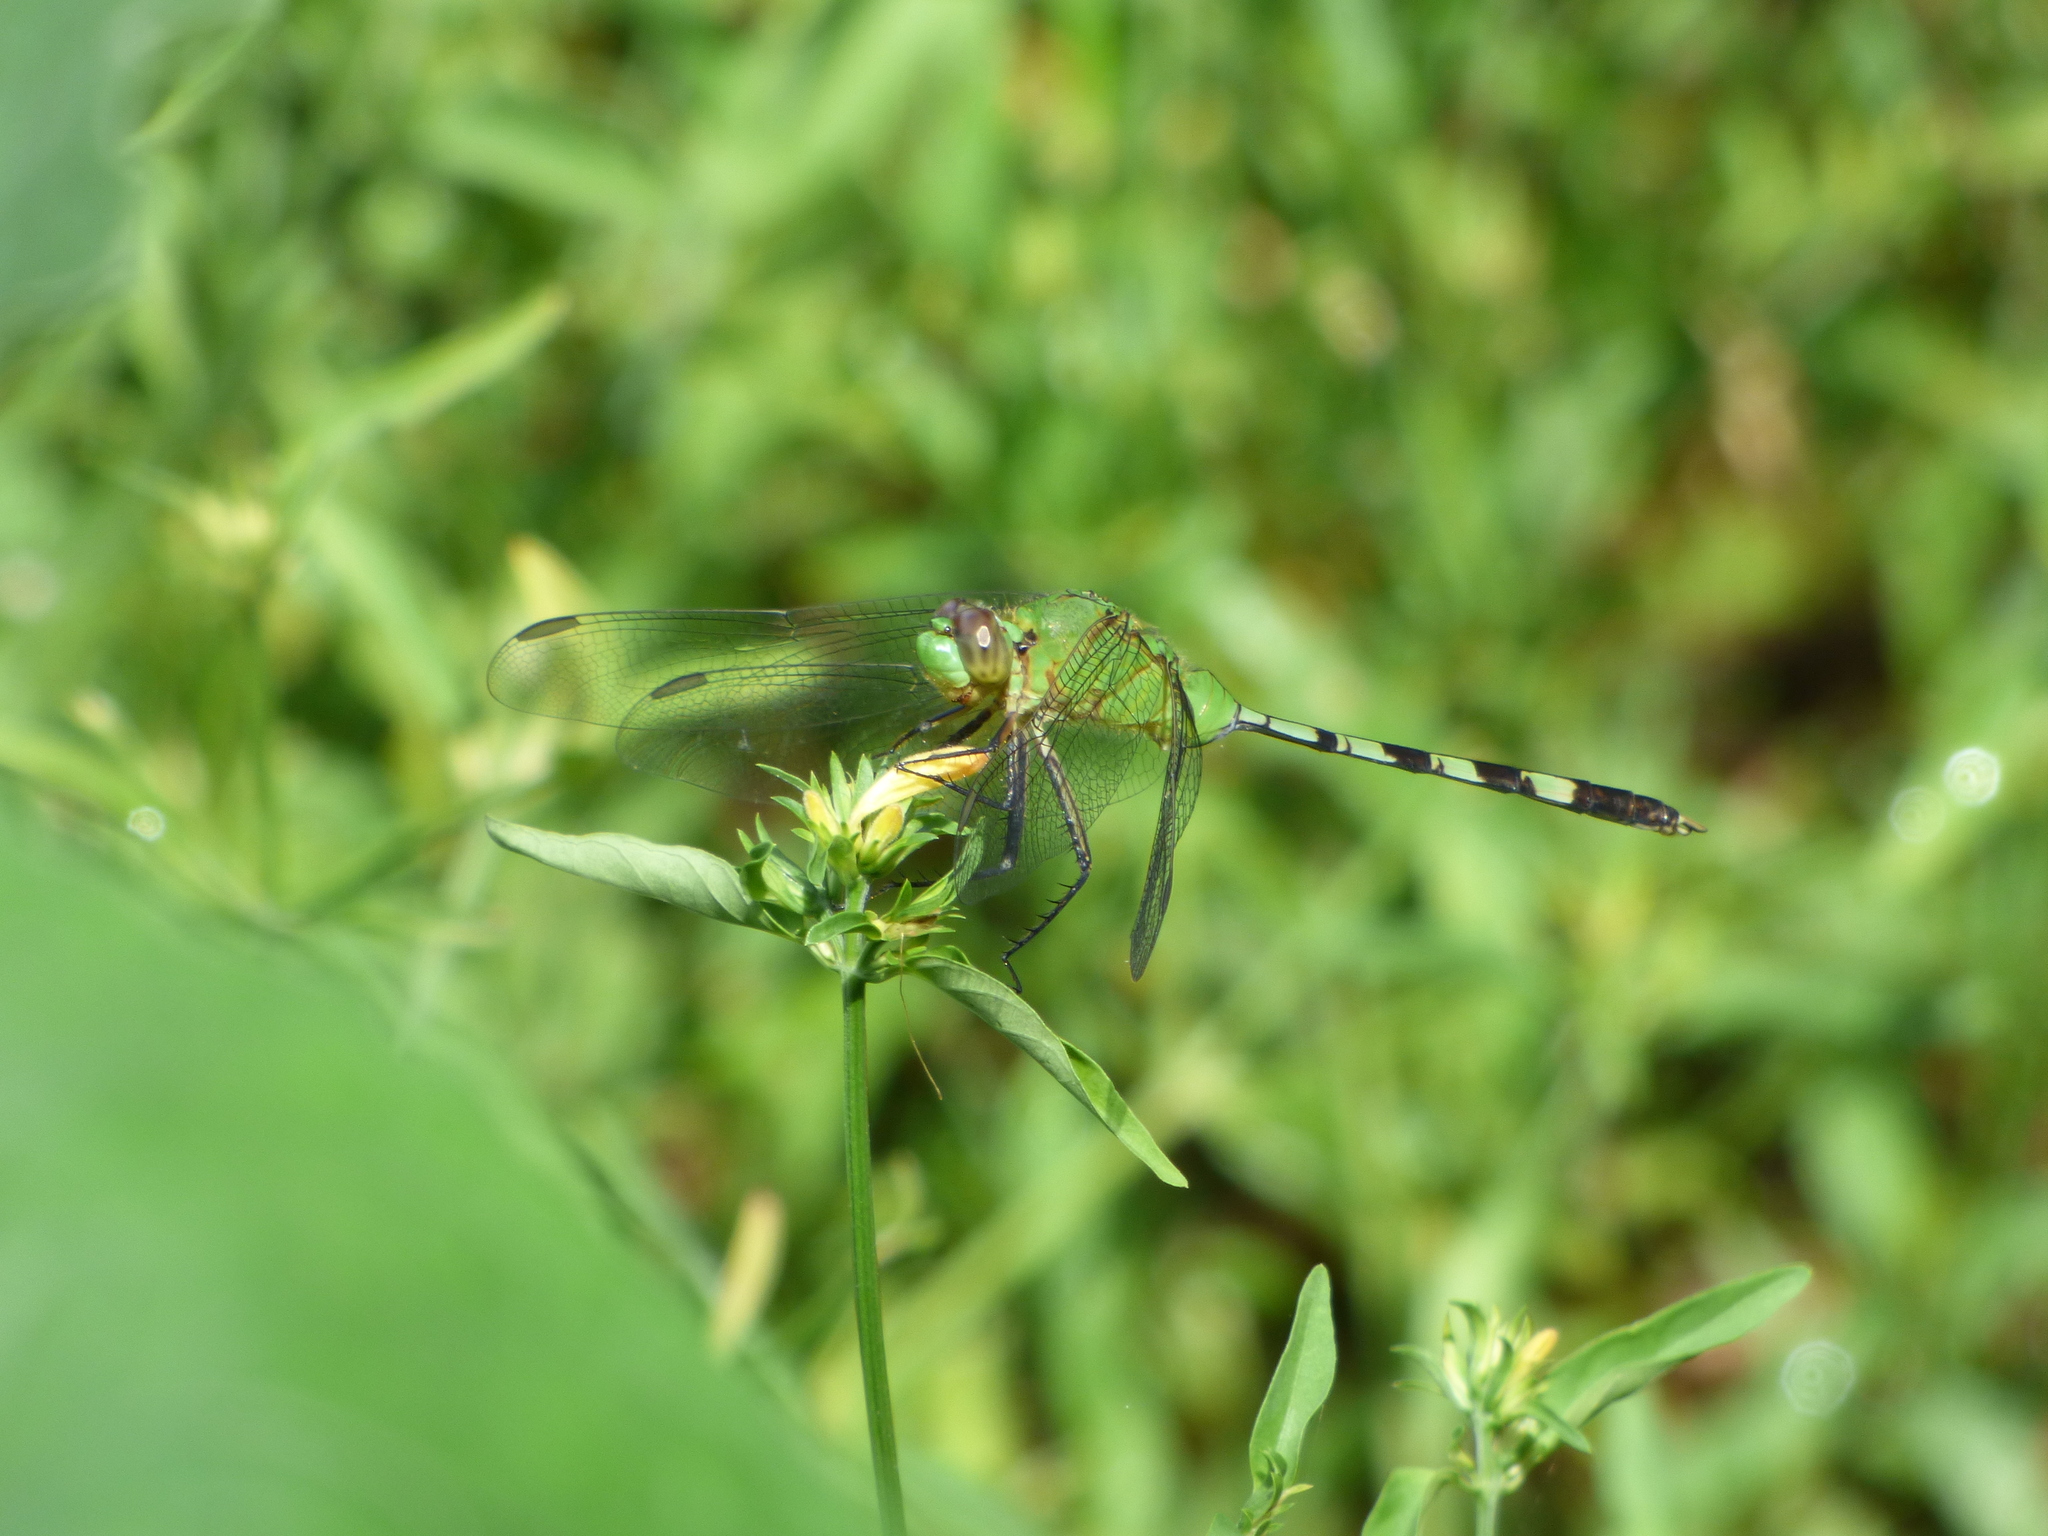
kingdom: Animalia
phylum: Arthropoda
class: Insecta
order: Odonata
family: Libellulidae
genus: Erythemis
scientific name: Erythemis vesiculosa
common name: Great pondhawk
